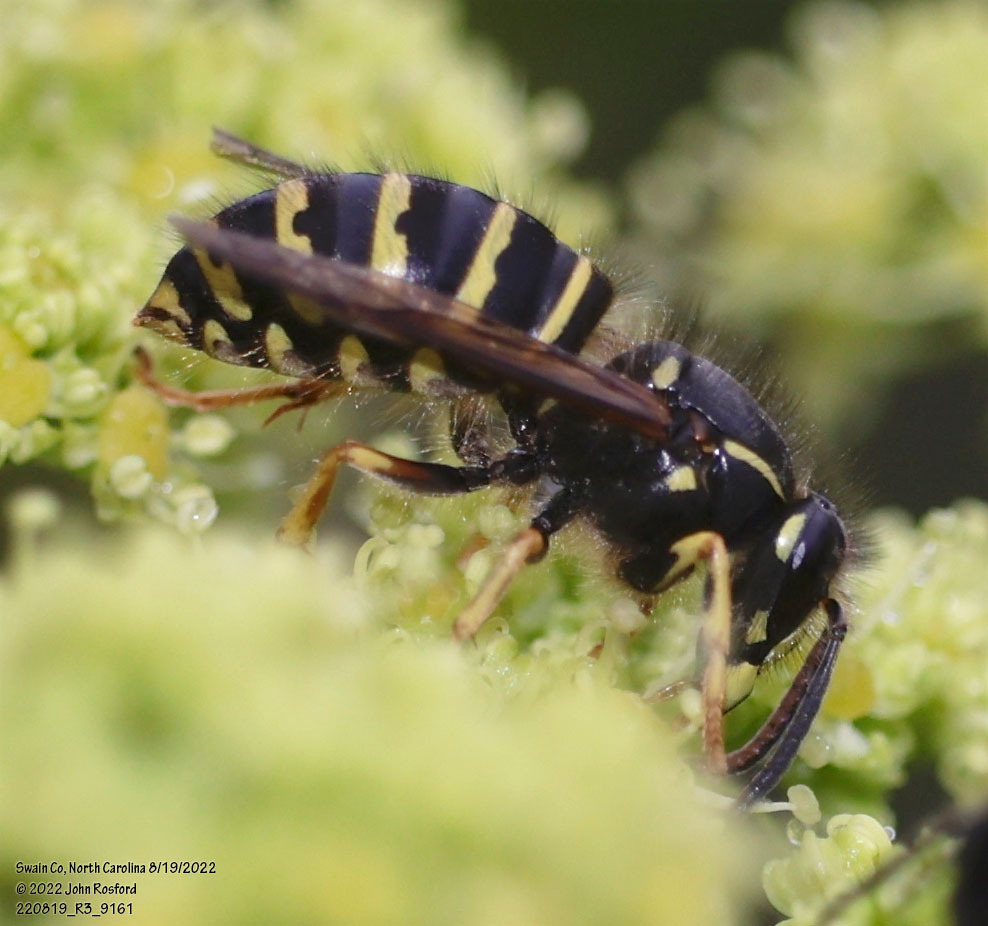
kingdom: Animalia
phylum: Arthropoda
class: Insecta
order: Hymenoptera
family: Vespidae
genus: Dolichovespula
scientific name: Dolichovespula norvegicoides
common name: Northern aerial yellowjacket
